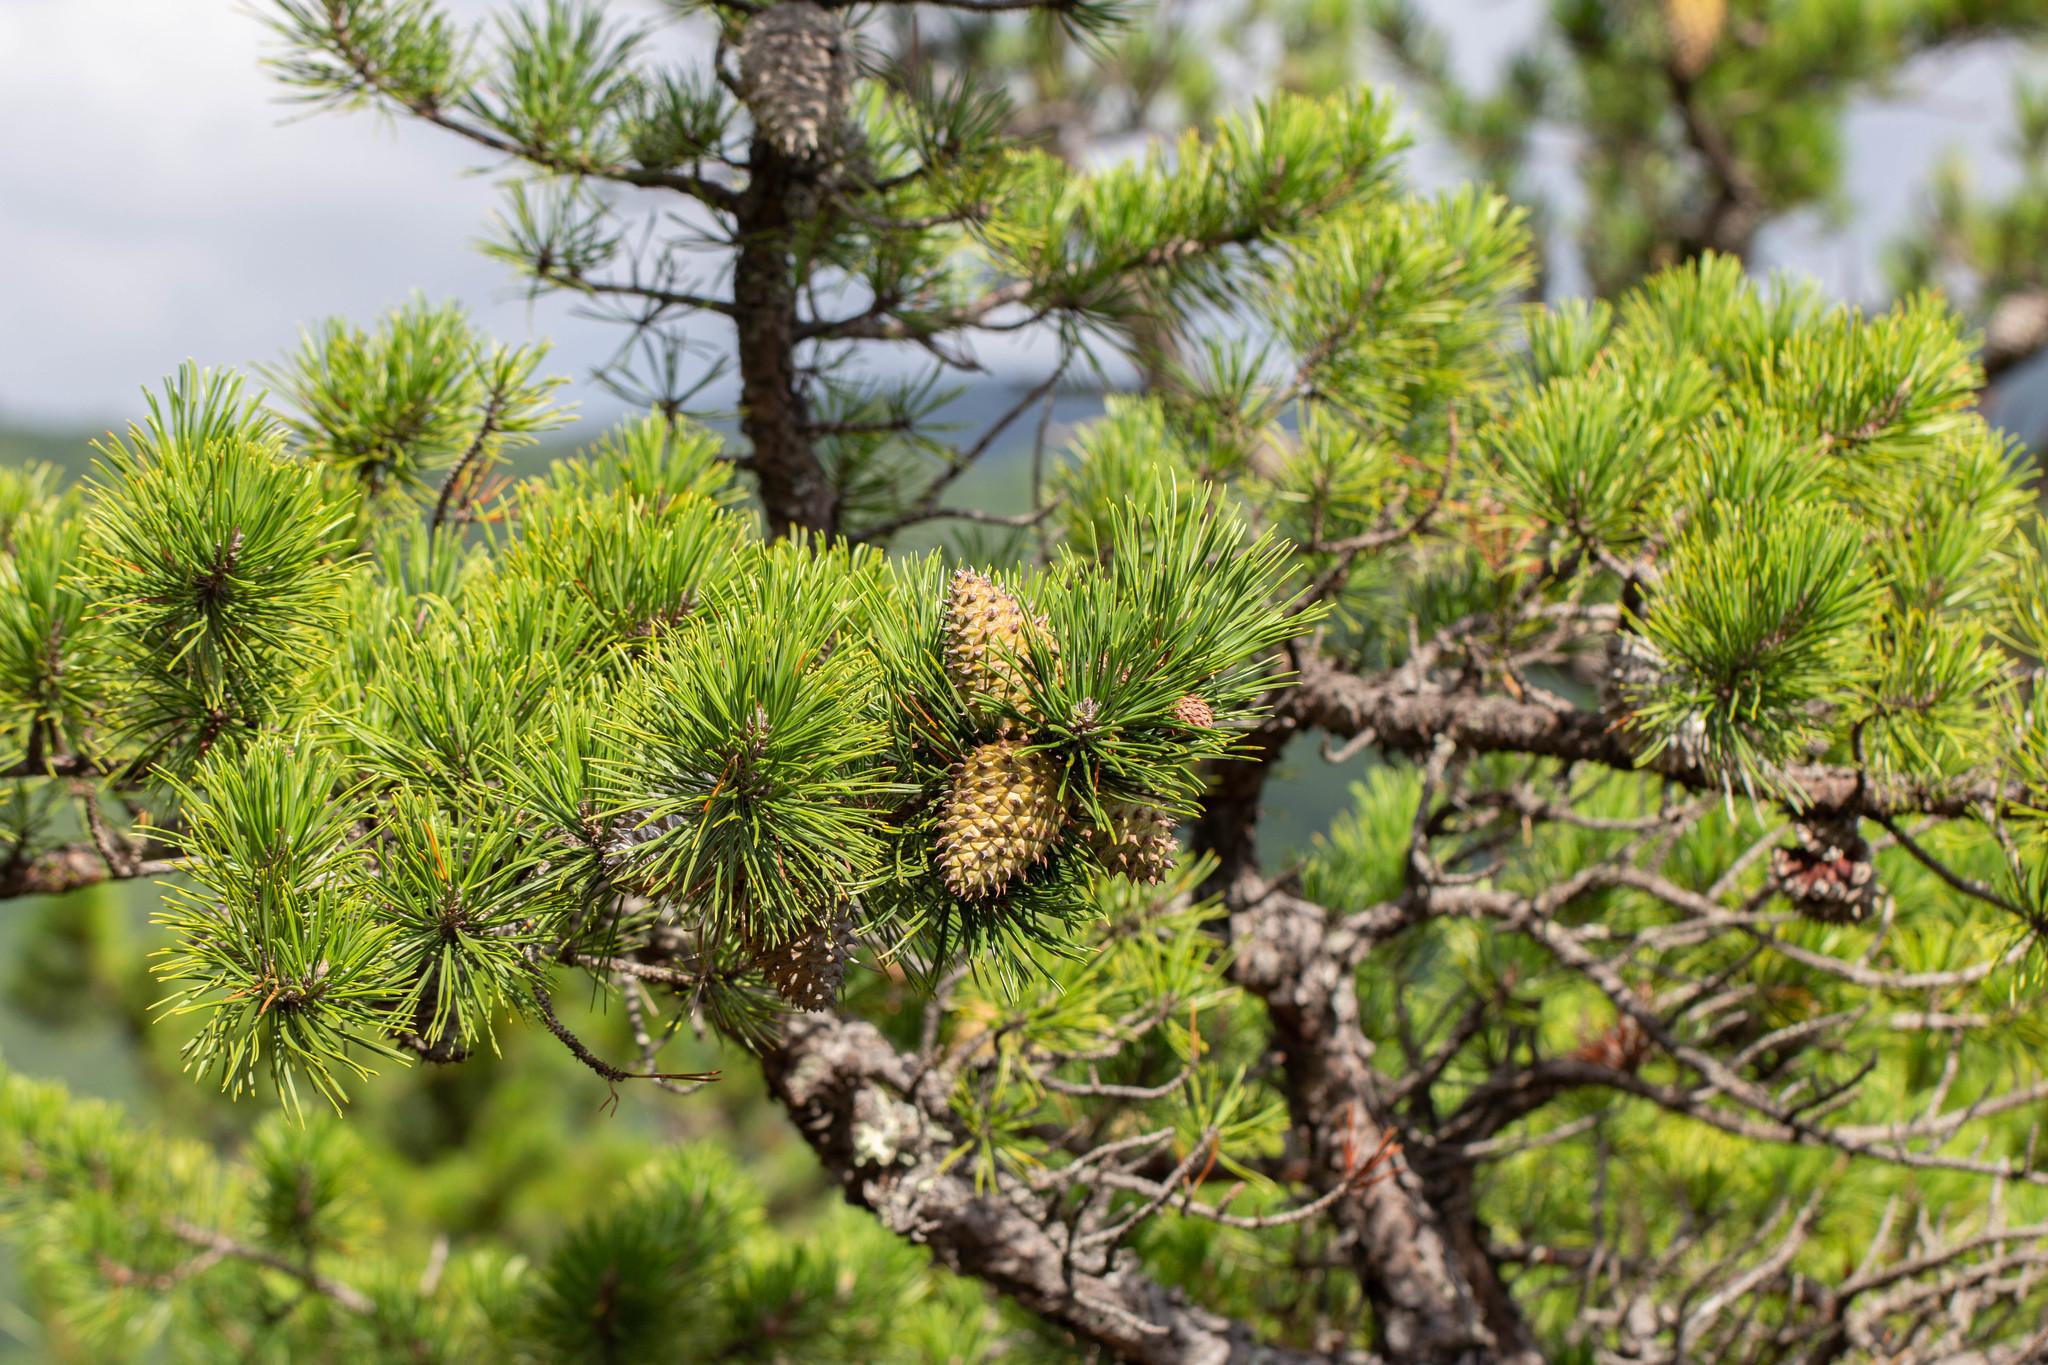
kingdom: Plantae
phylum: Tracheophyta
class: Pinopsida
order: Pinales
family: Pinaceae
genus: Pinus
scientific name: Pinus pungens
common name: Hickory pine
